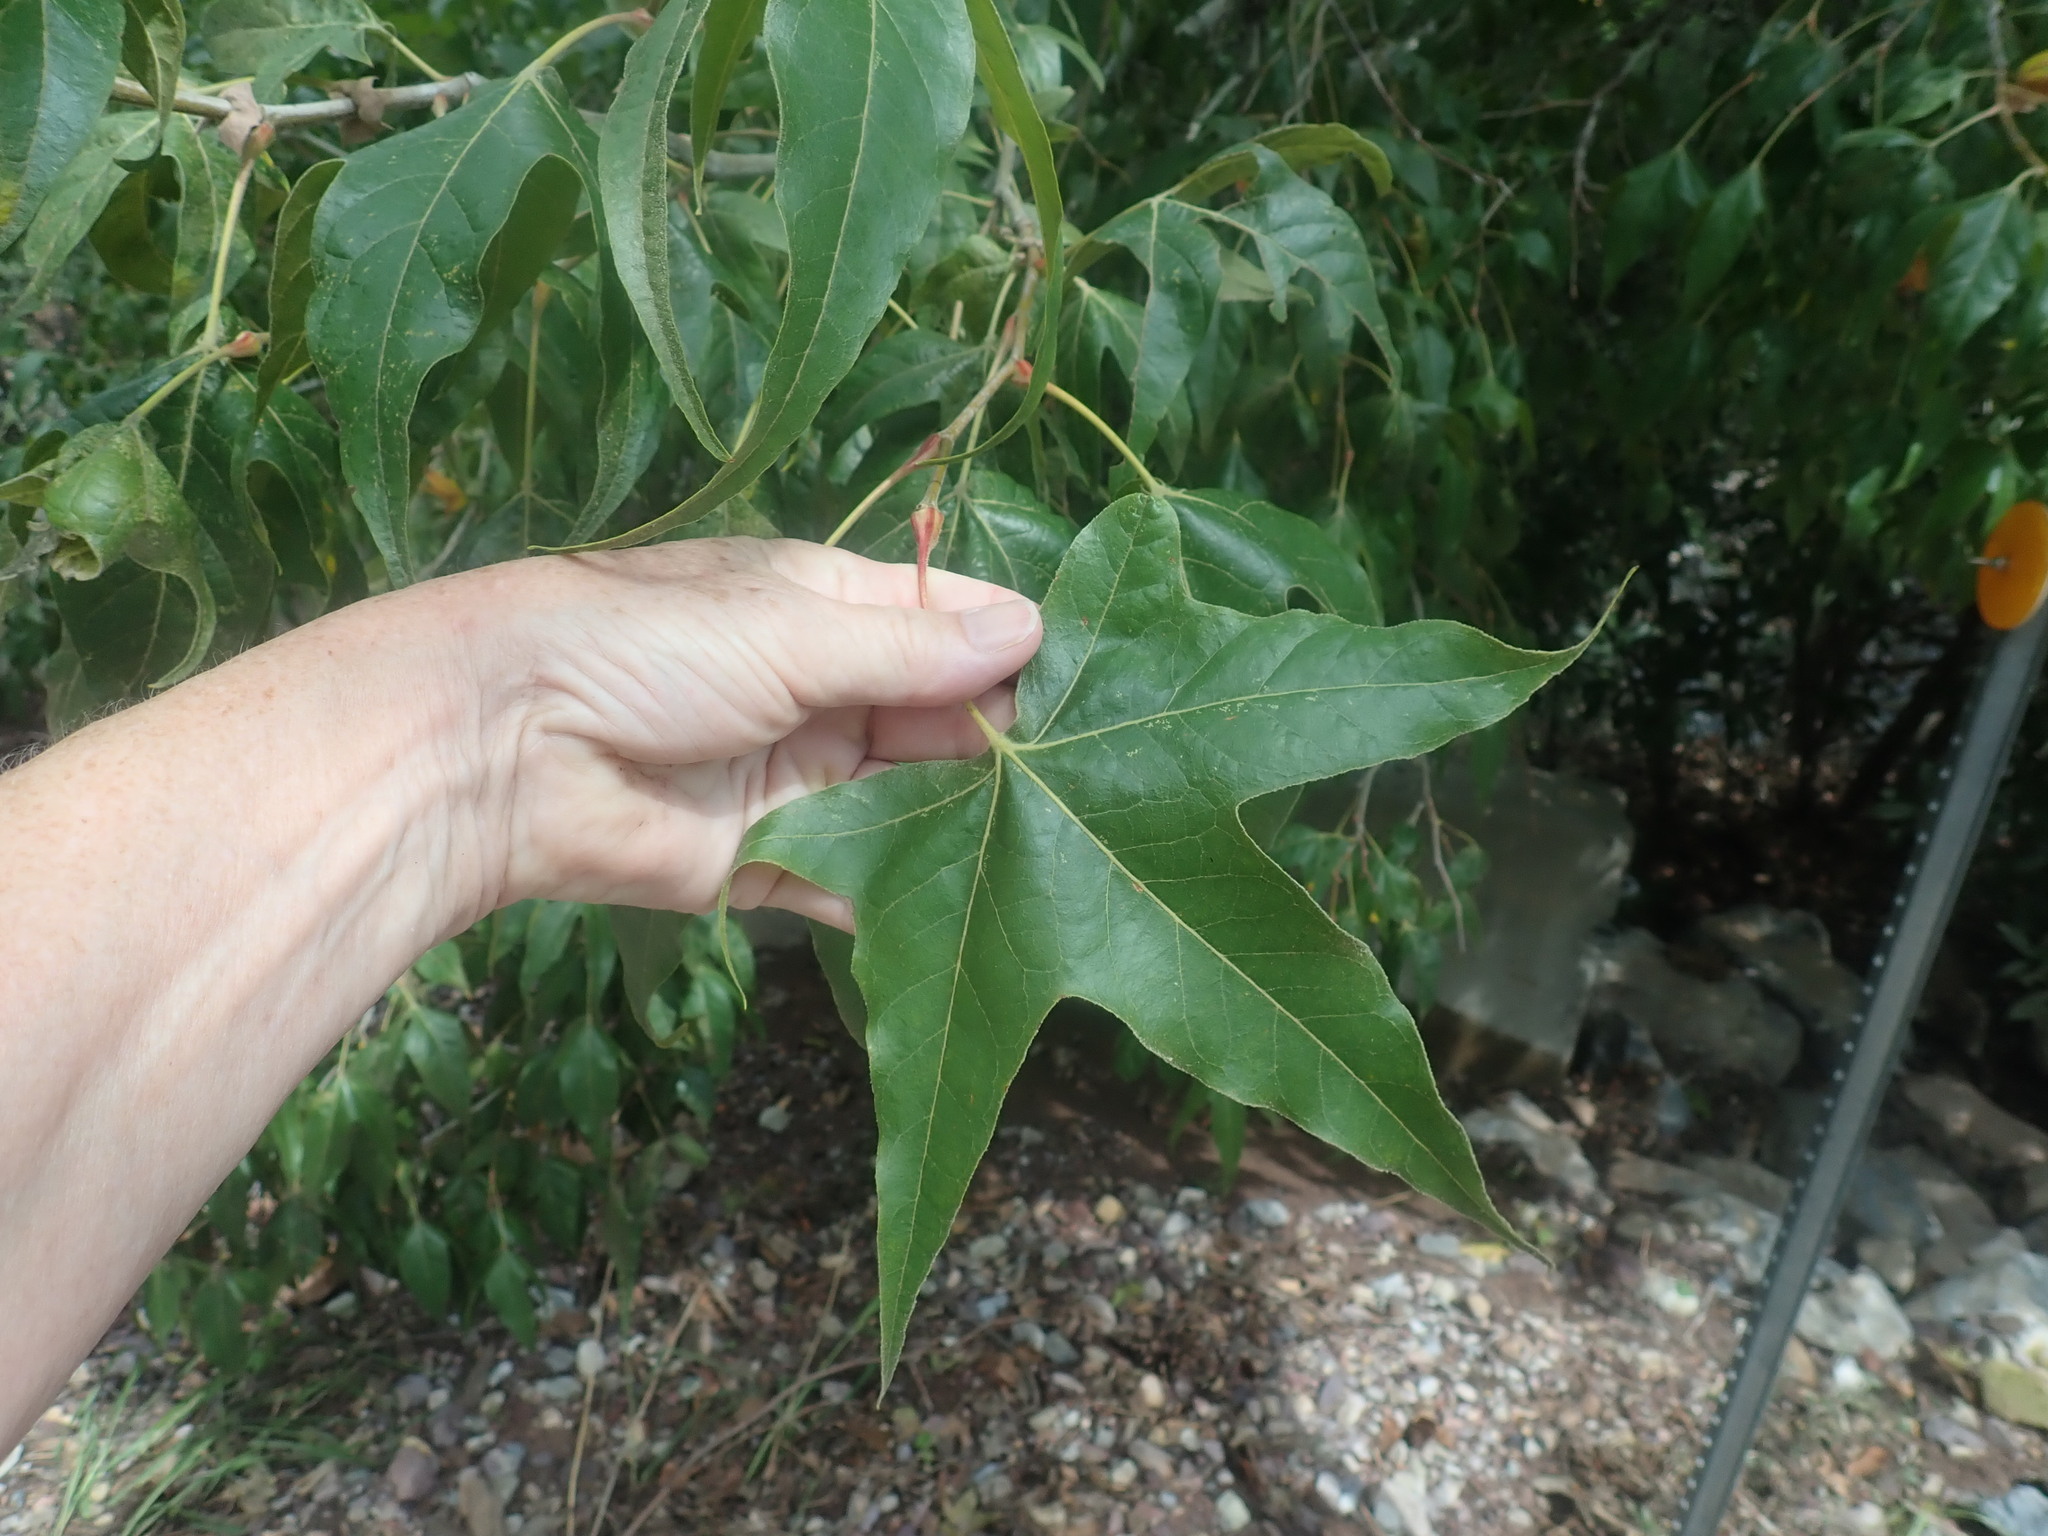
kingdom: Plantae
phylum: Tracheophyta
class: Magnoliopsida
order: Proteales
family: Platanaceae
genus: Platanus
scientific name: Platanus wrightii
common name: Arizona sycamore
